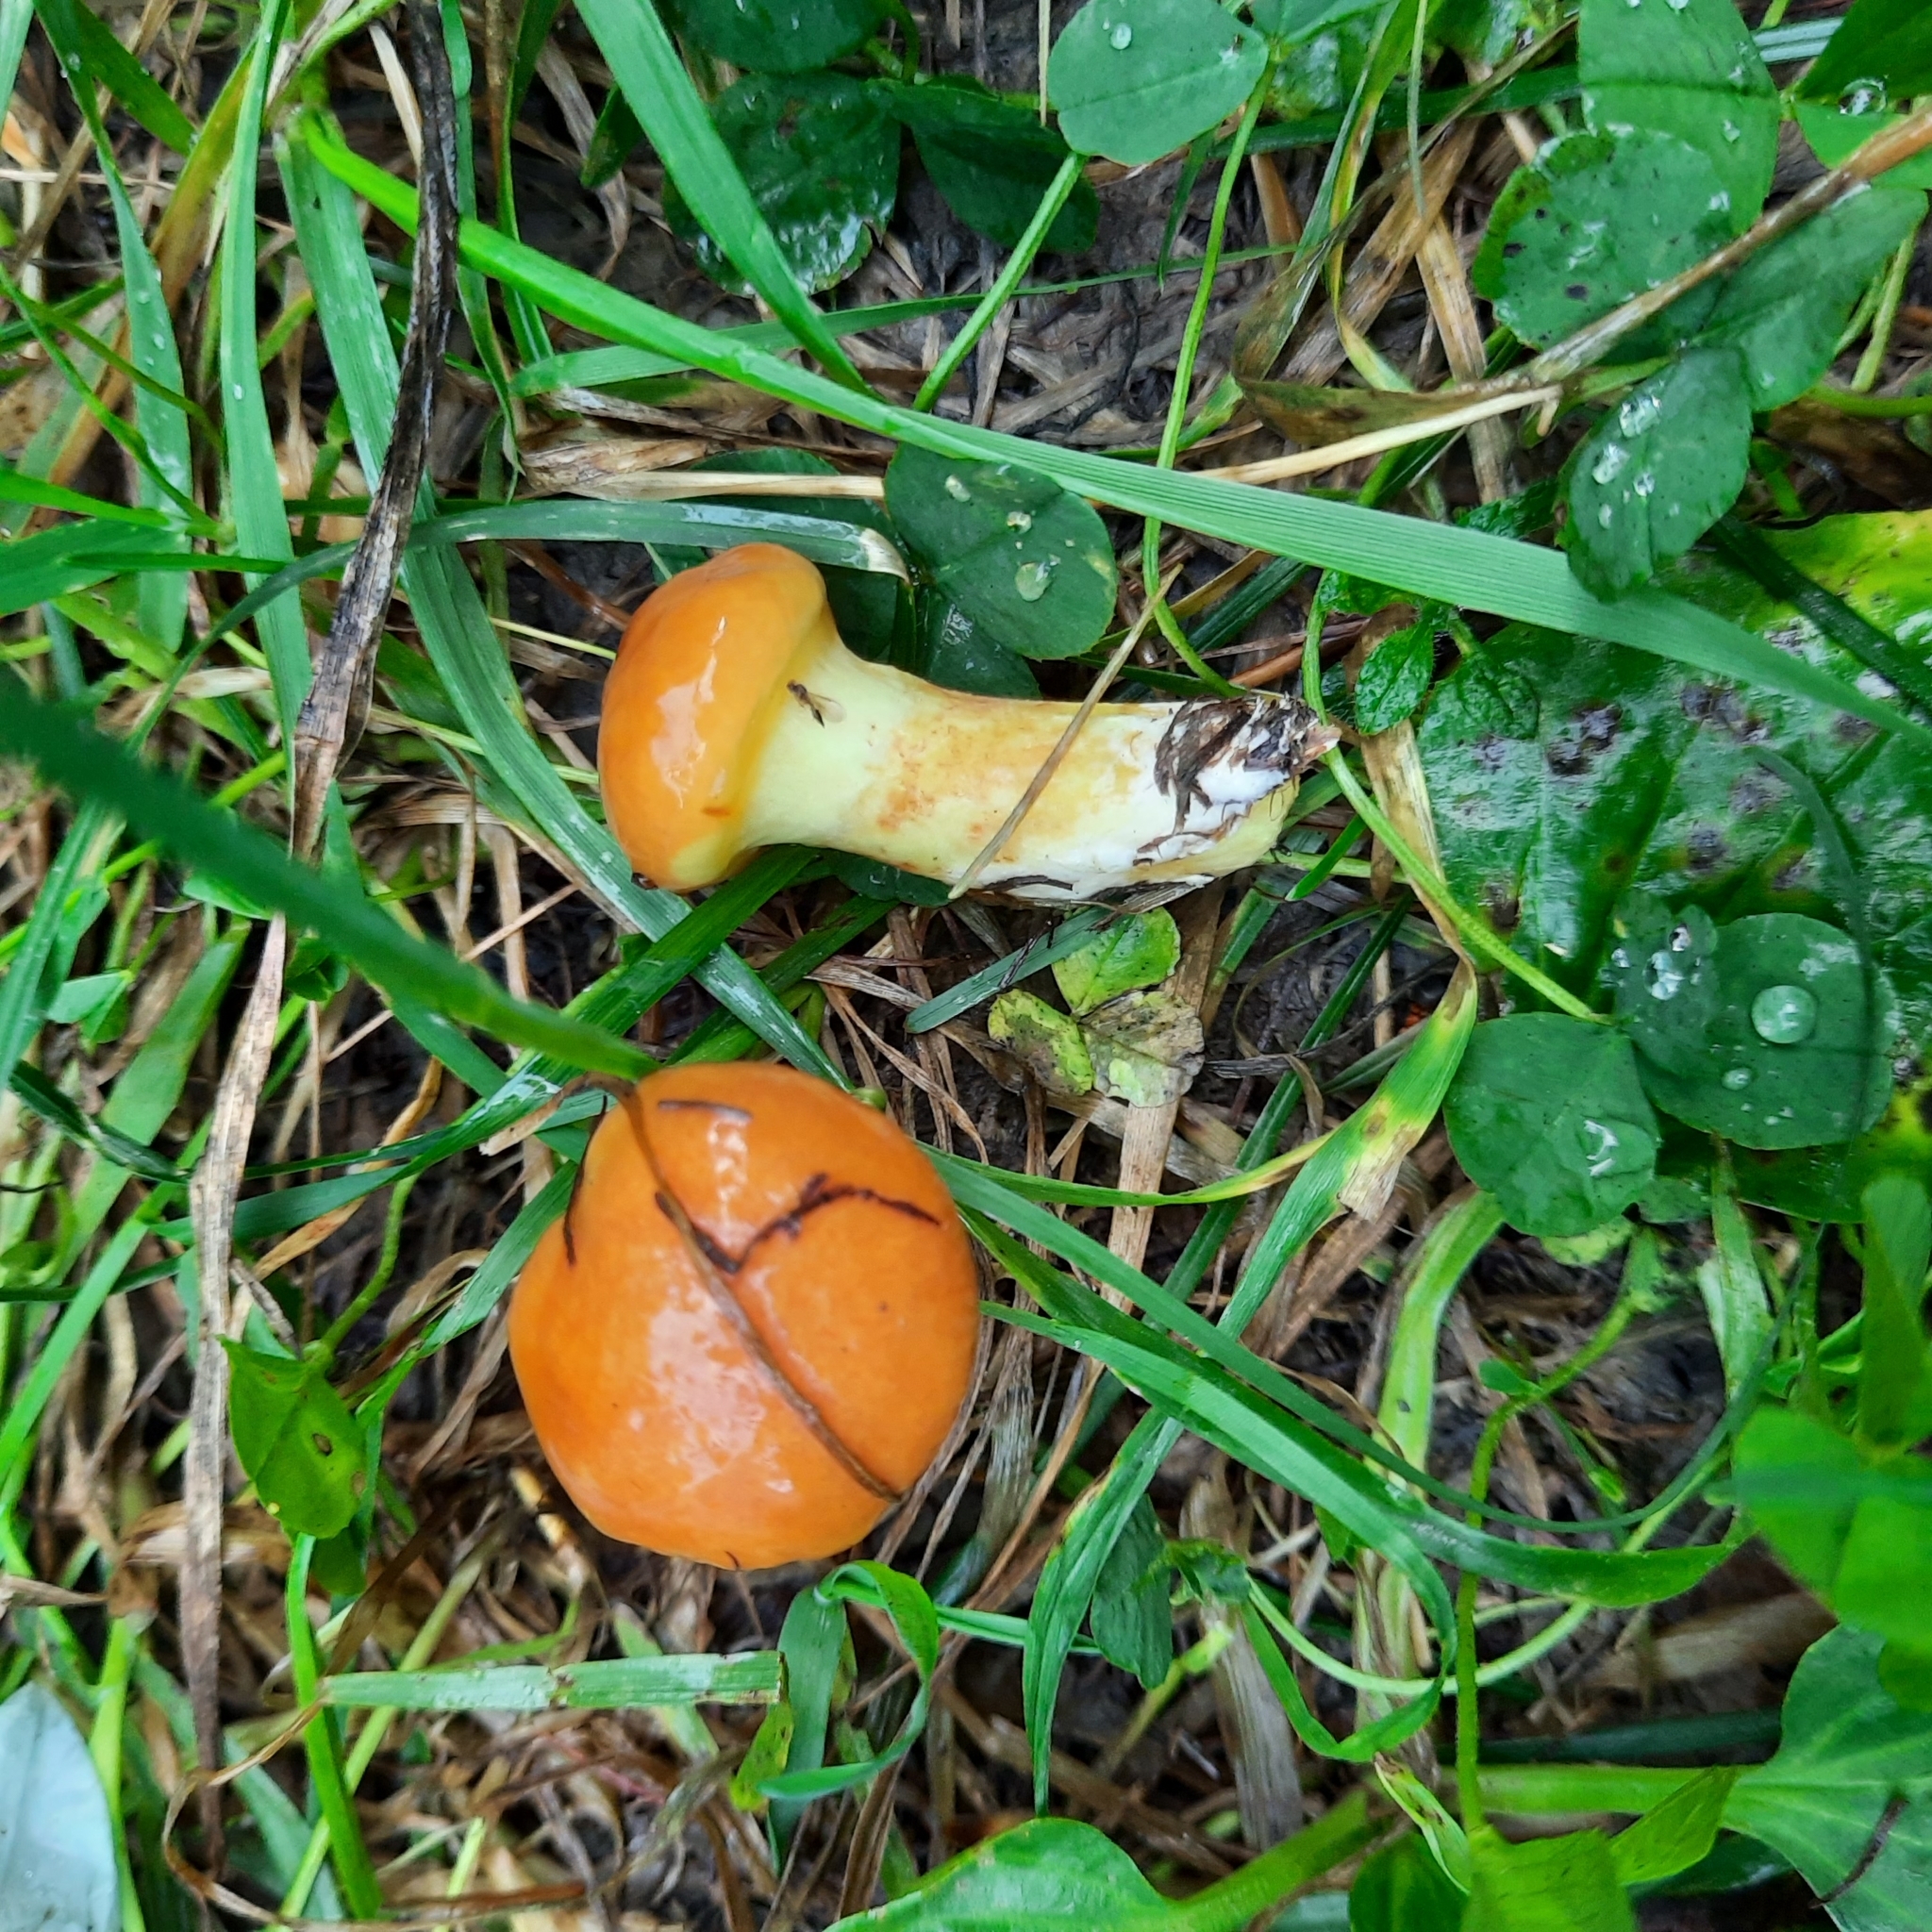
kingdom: Fungi
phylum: Basidiomycota
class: Agaricomycetes
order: Boletales
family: Suillaceae
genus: Suillus
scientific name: Suillus grevillei
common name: Larch bolete
